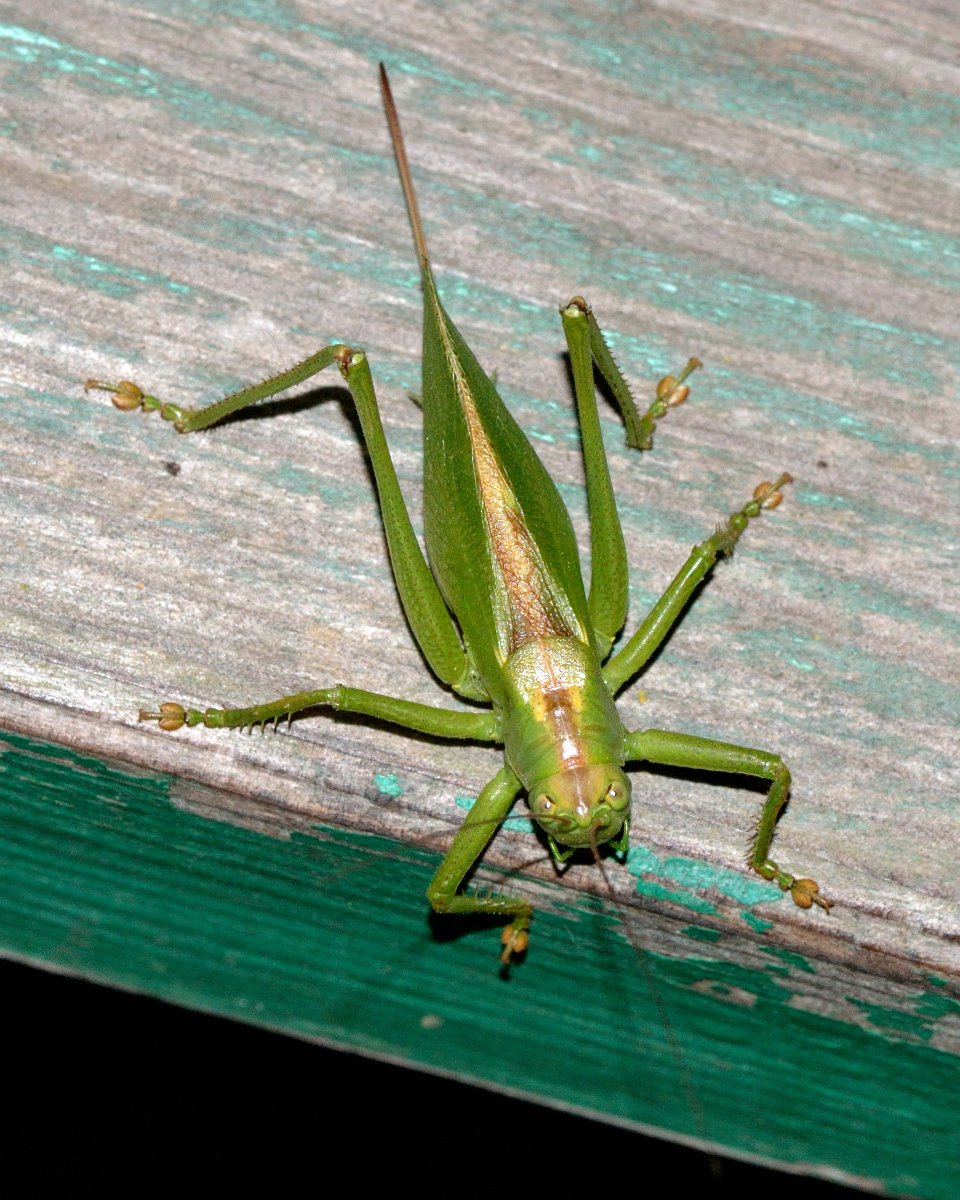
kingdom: Animalia
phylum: Arthropoda
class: Insecta
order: Orthoptera
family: Tettigoniidae
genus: Tettigonia
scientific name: Tettigonia cantans
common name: Upland green bush-cricket
